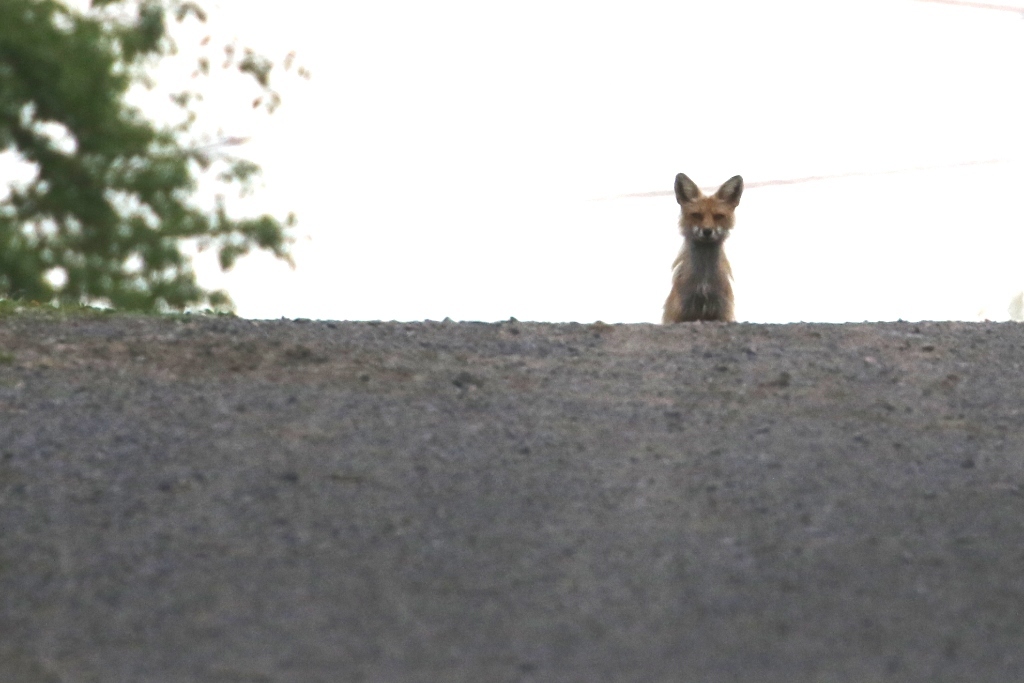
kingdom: Animalia
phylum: Chordata
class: Mammalia
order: Carnivora
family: Canidae
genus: Vulpes
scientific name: Vulpes vulpes
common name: Red fox
